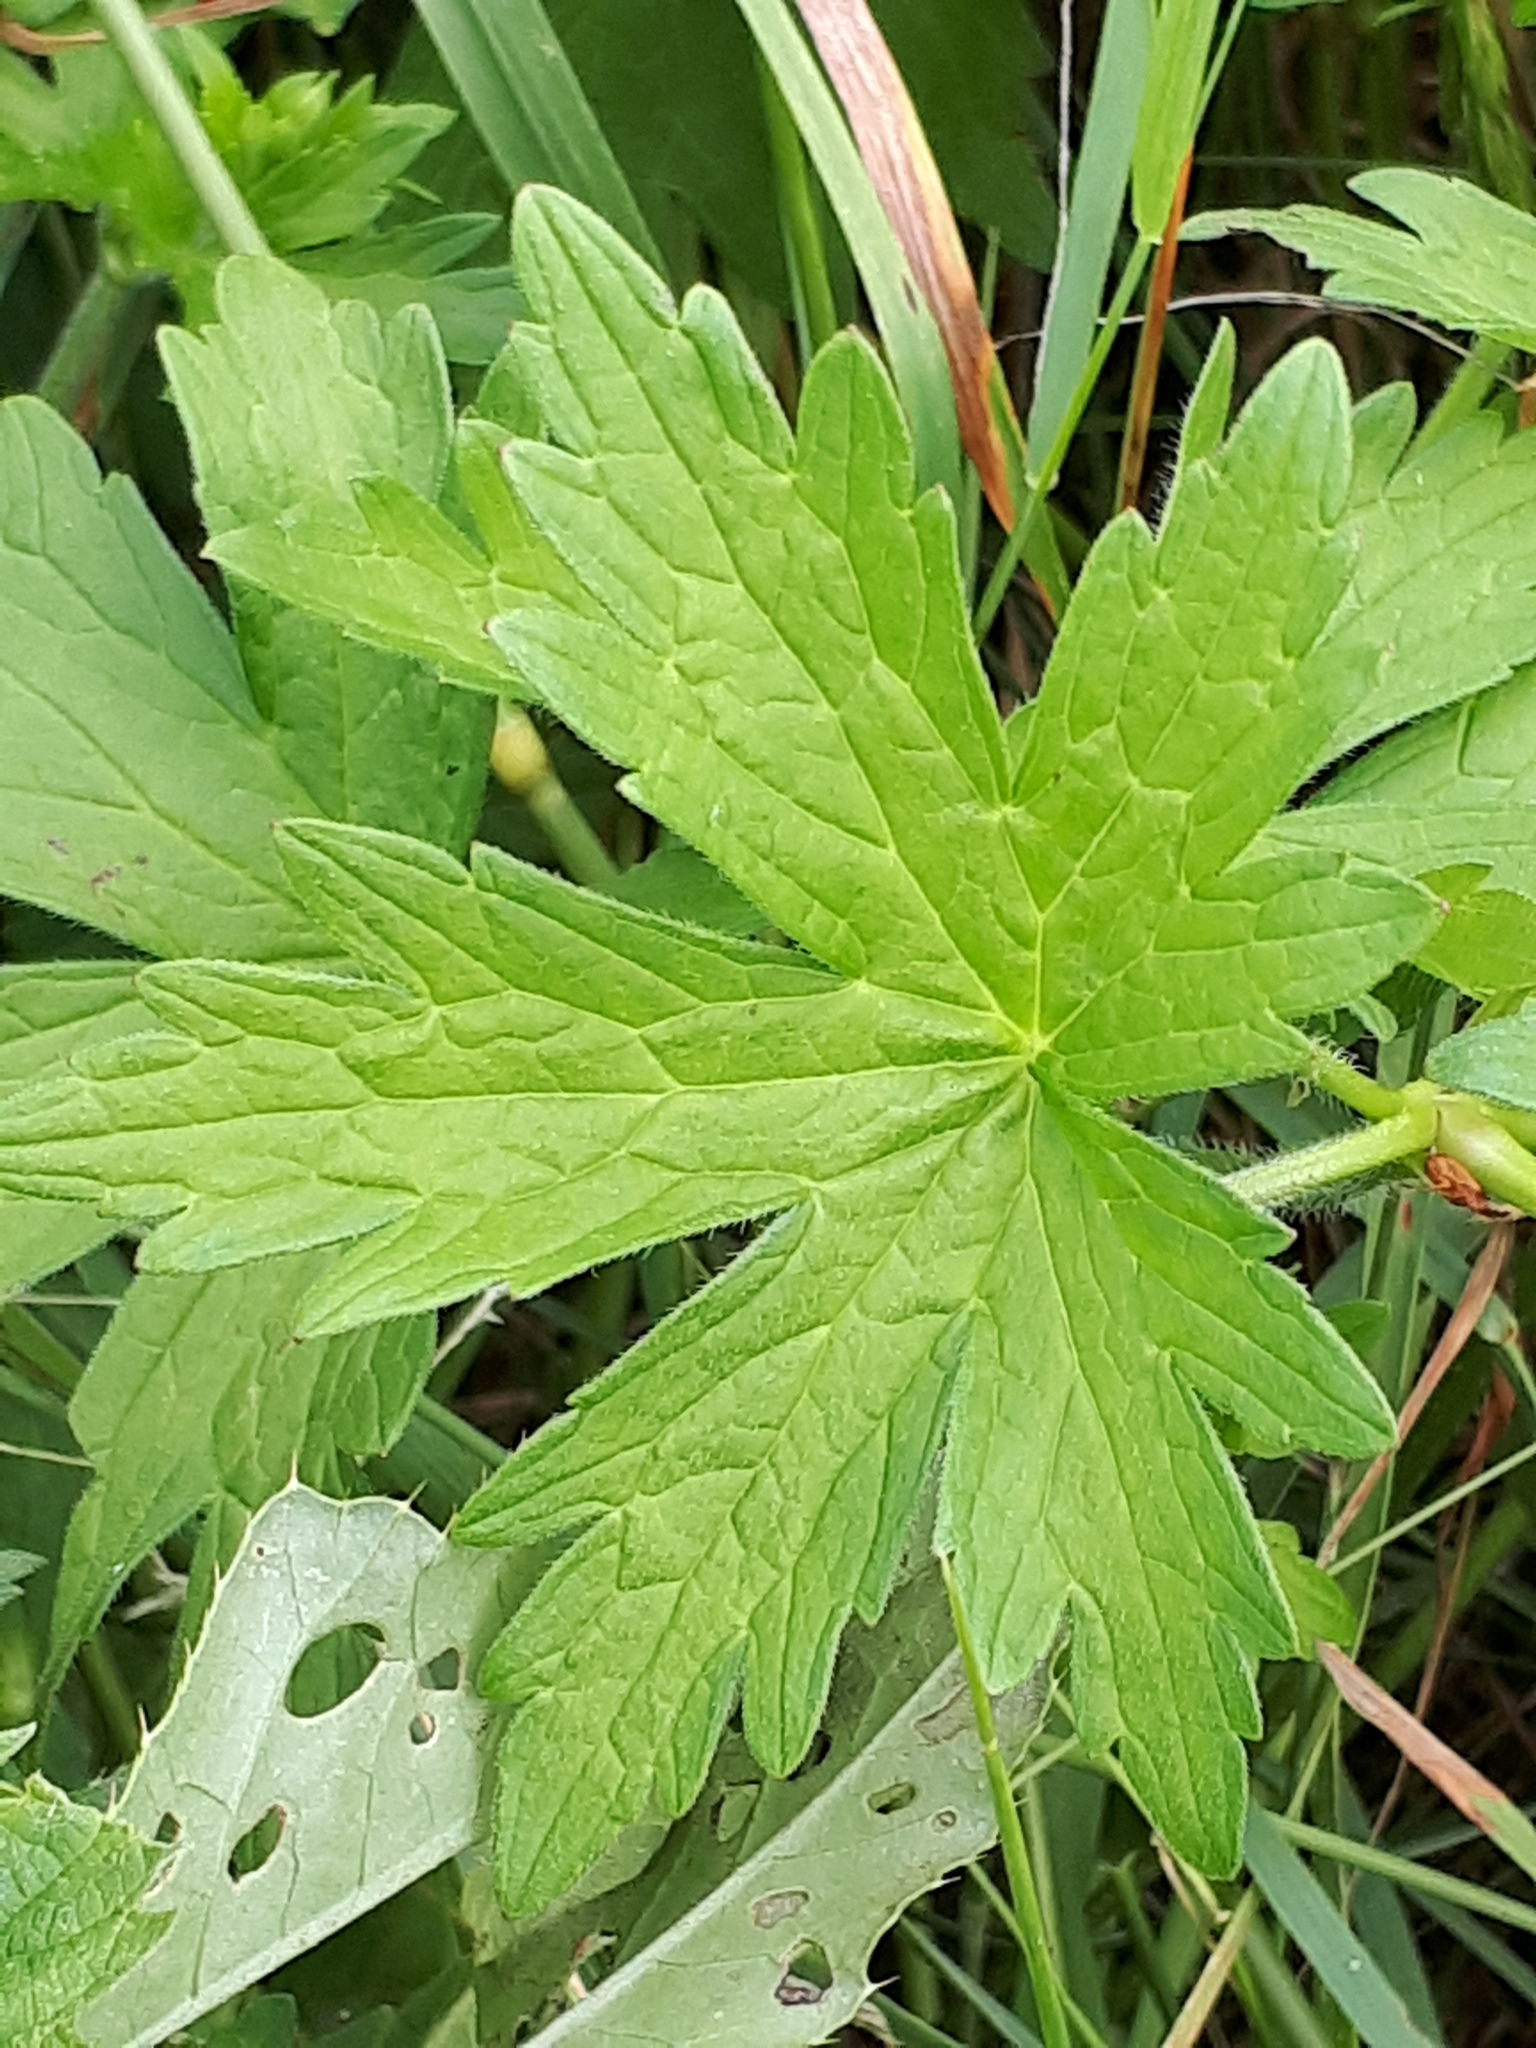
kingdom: Plantae
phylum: Tracheophyta
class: Magnoliopsida
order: Geraniales
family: Geraniaceae
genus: Geranium
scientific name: Geranium palustre
